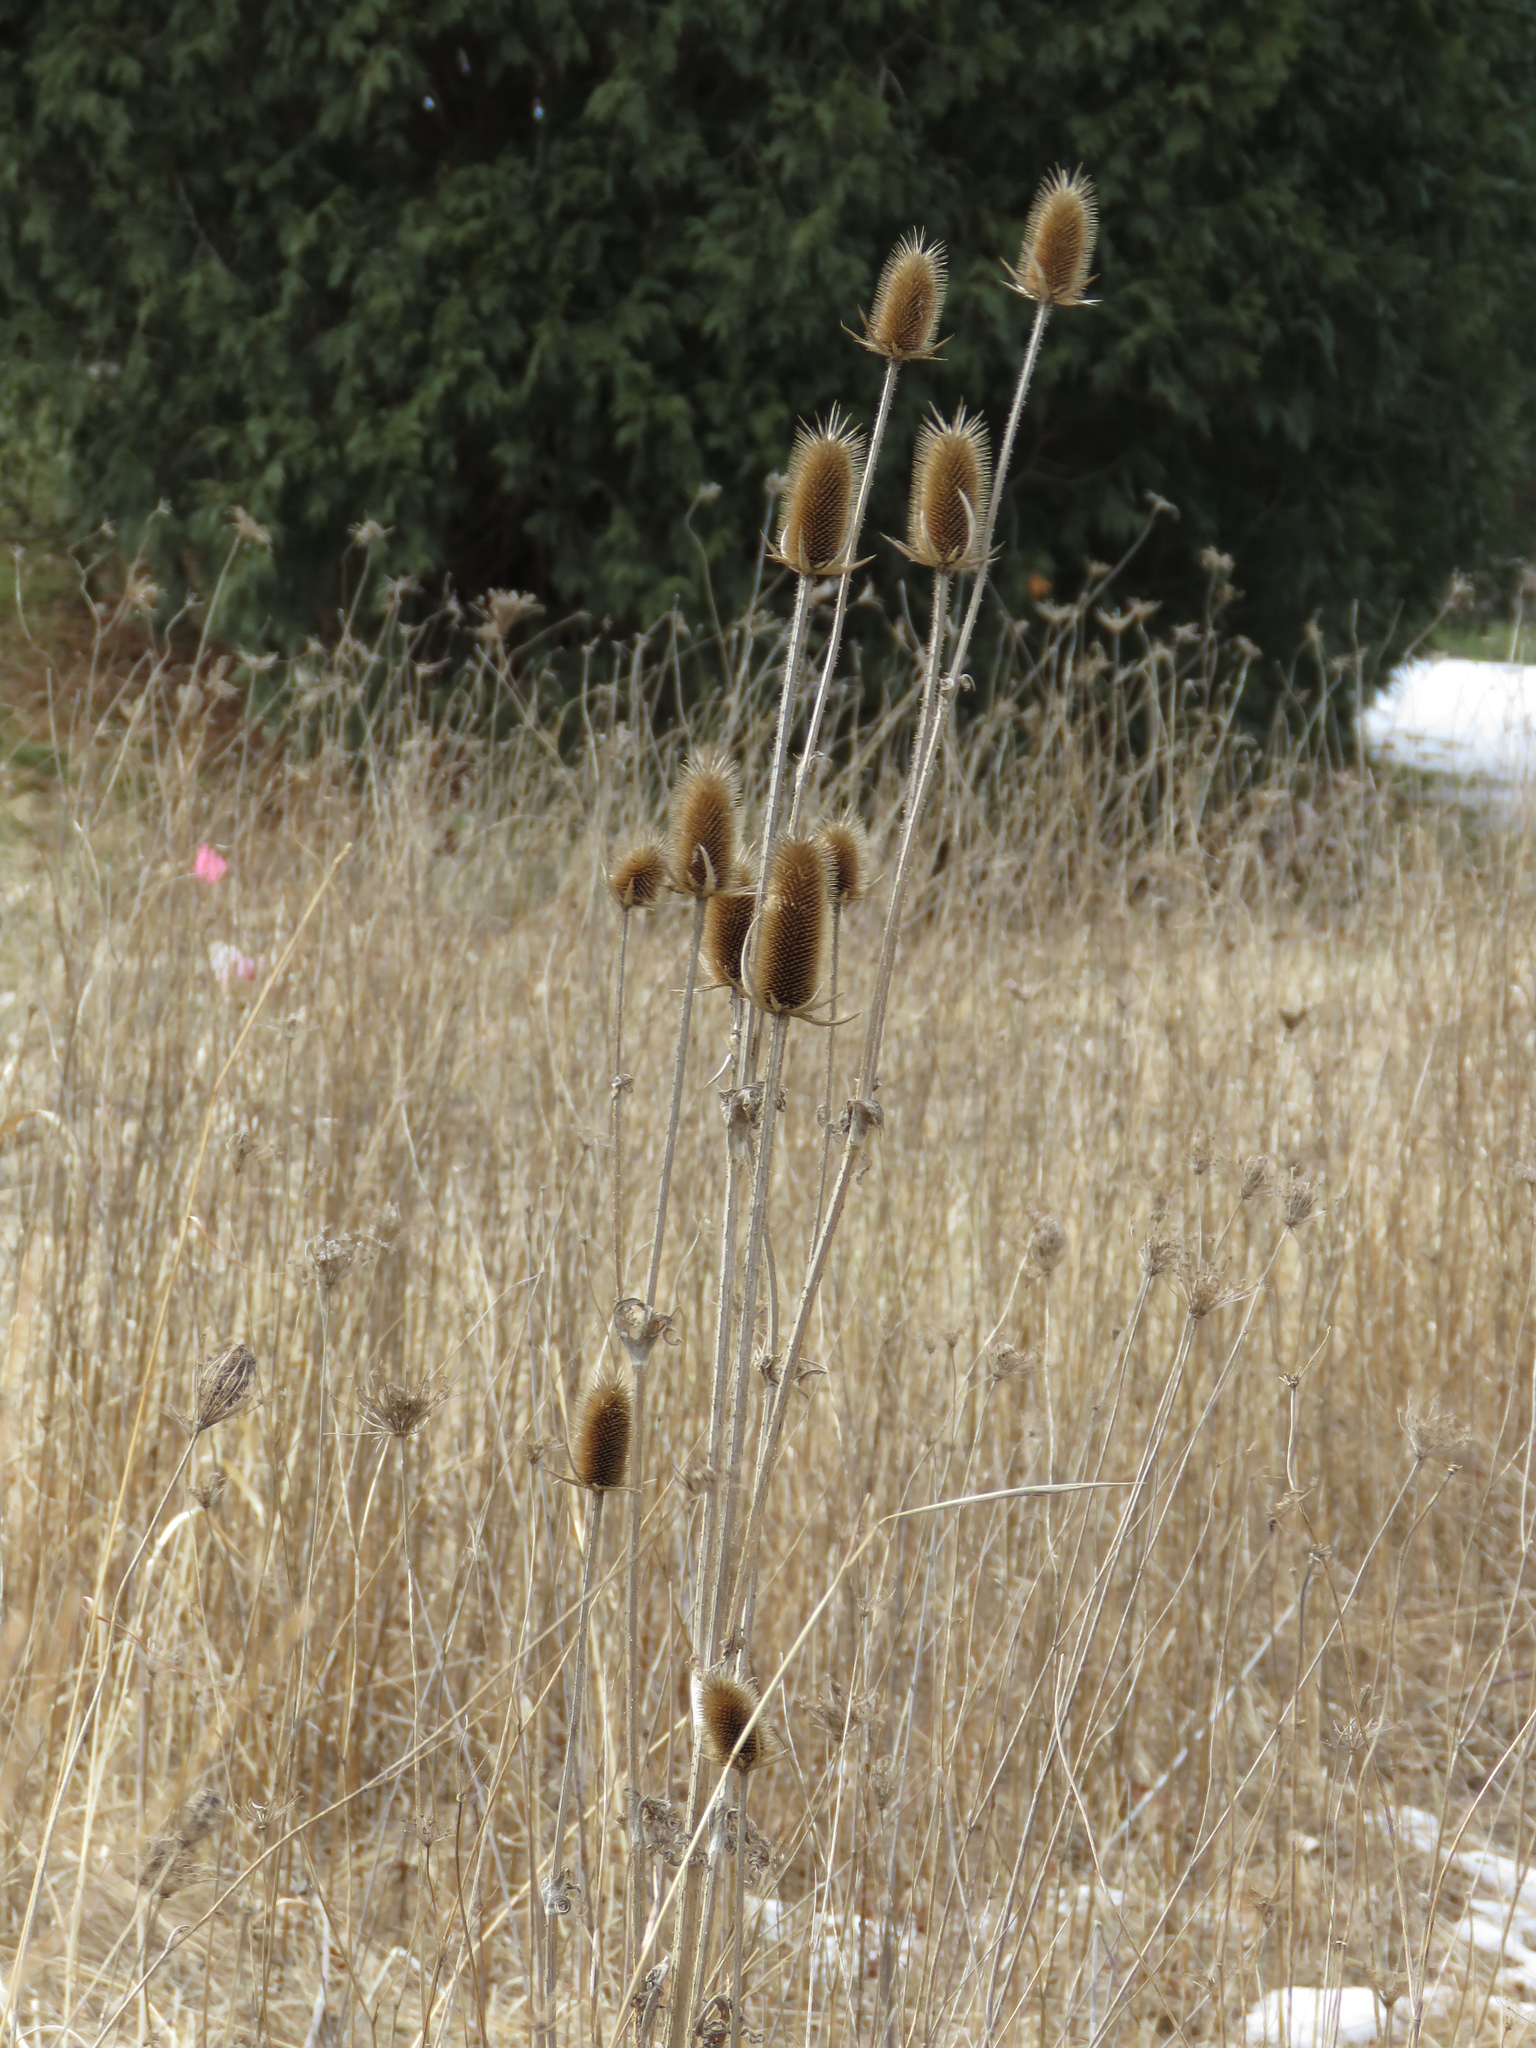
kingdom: Plantae
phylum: Tracheophyta
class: Magnoliopsida
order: Dipsacales
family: Caprifoliaceae
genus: Dipsacus
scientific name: Dipsacus laciniatus
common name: Cut-leaved teasel
